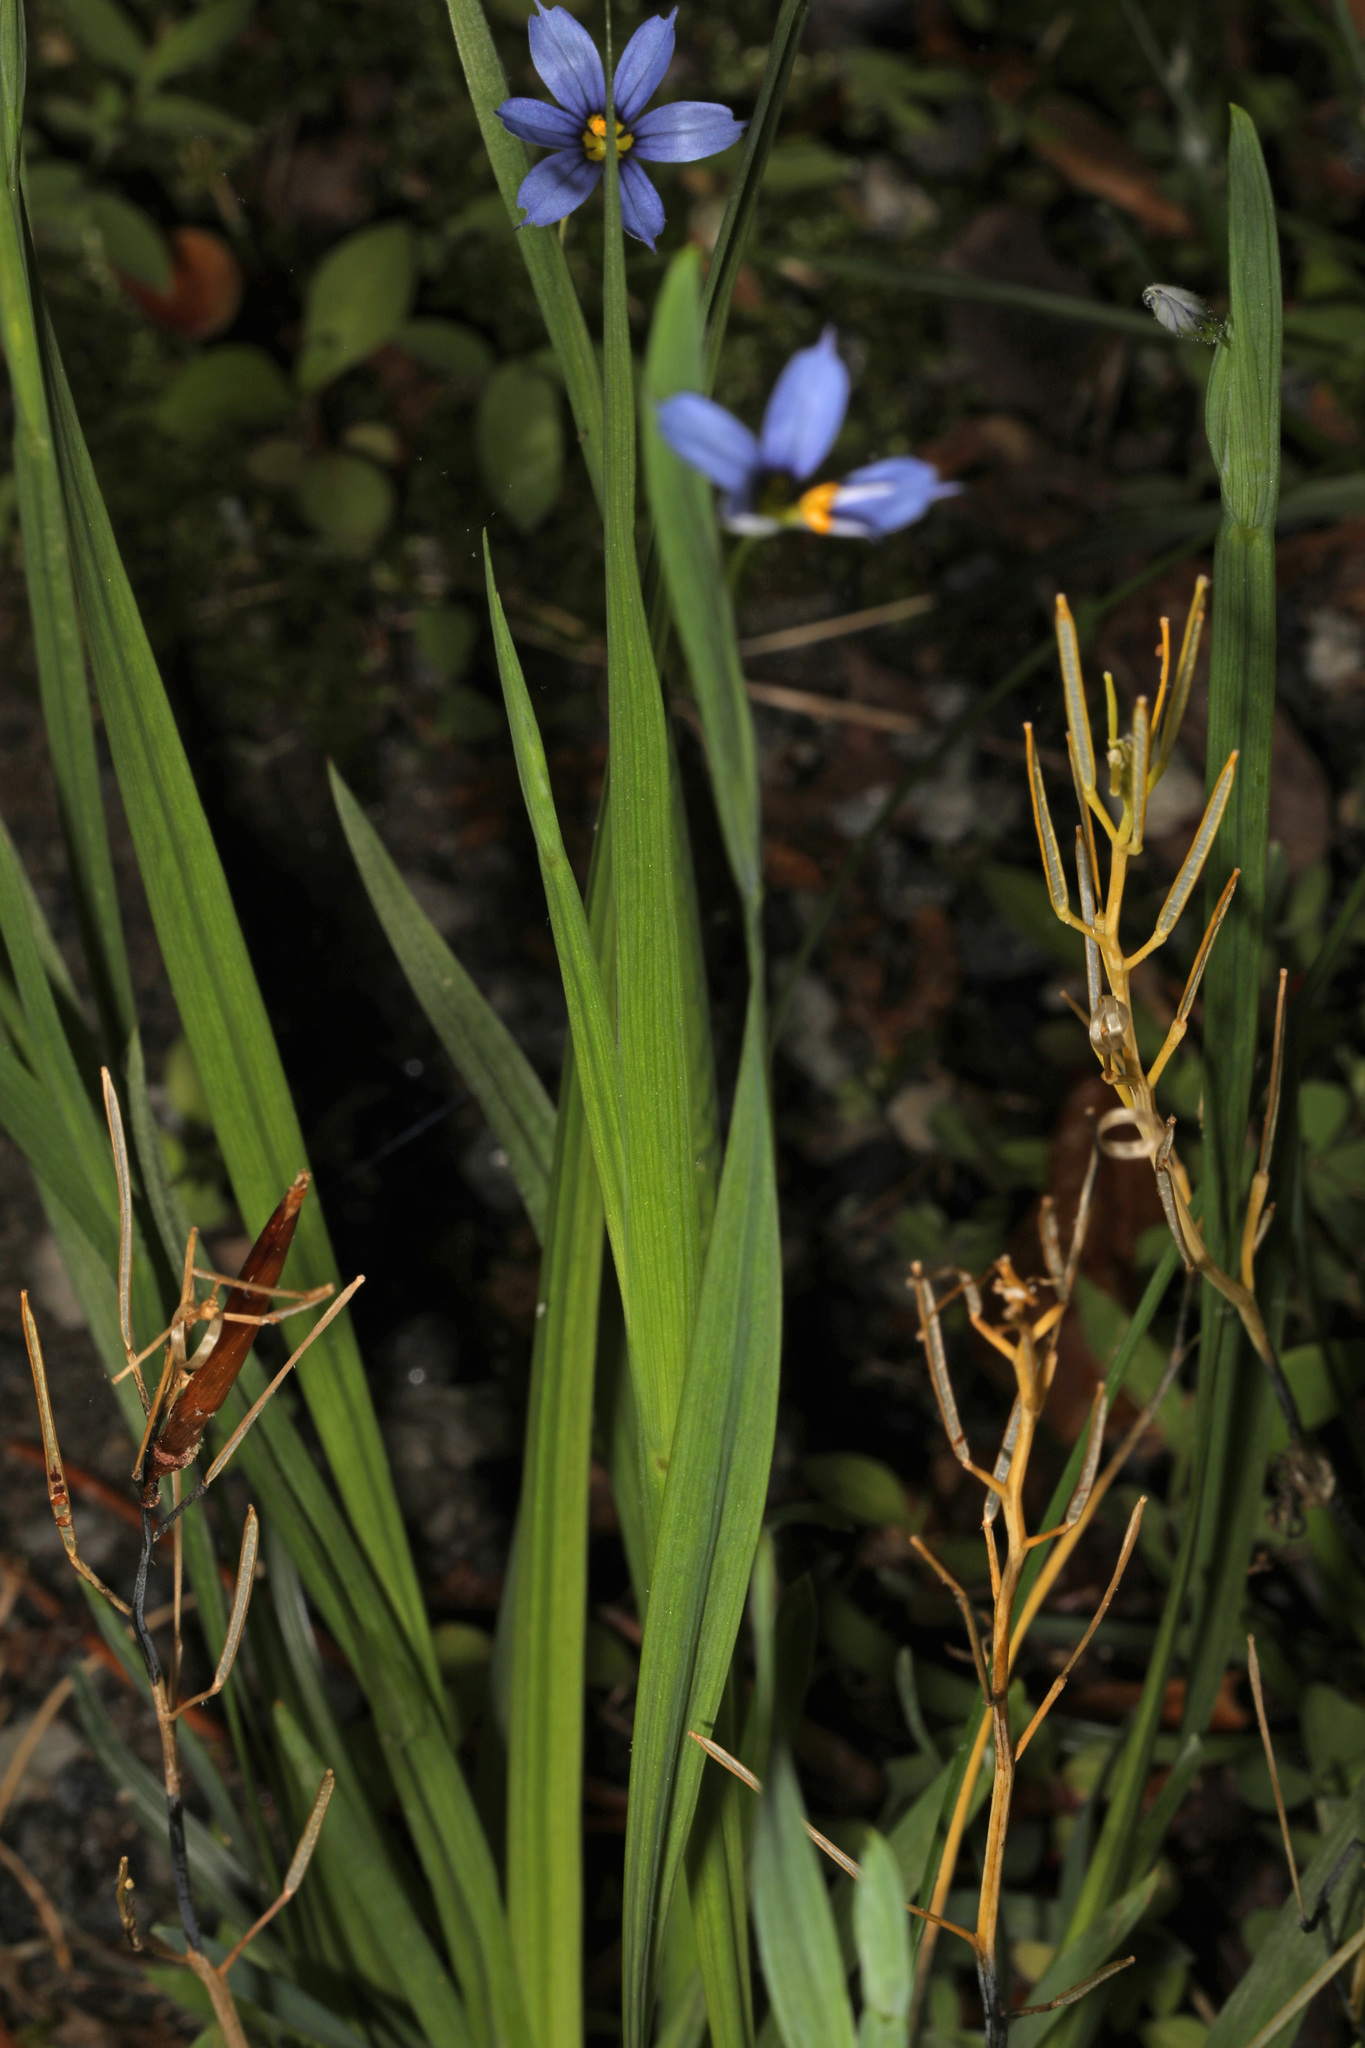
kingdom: Plantae
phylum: Tracheophyta
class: Liliopsida
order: Asparagales
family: Iridaceae
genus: Sisyrinchium
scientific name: Sisyrinchium angustifolium
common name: Narrow-leaf blue-eyed-grass
